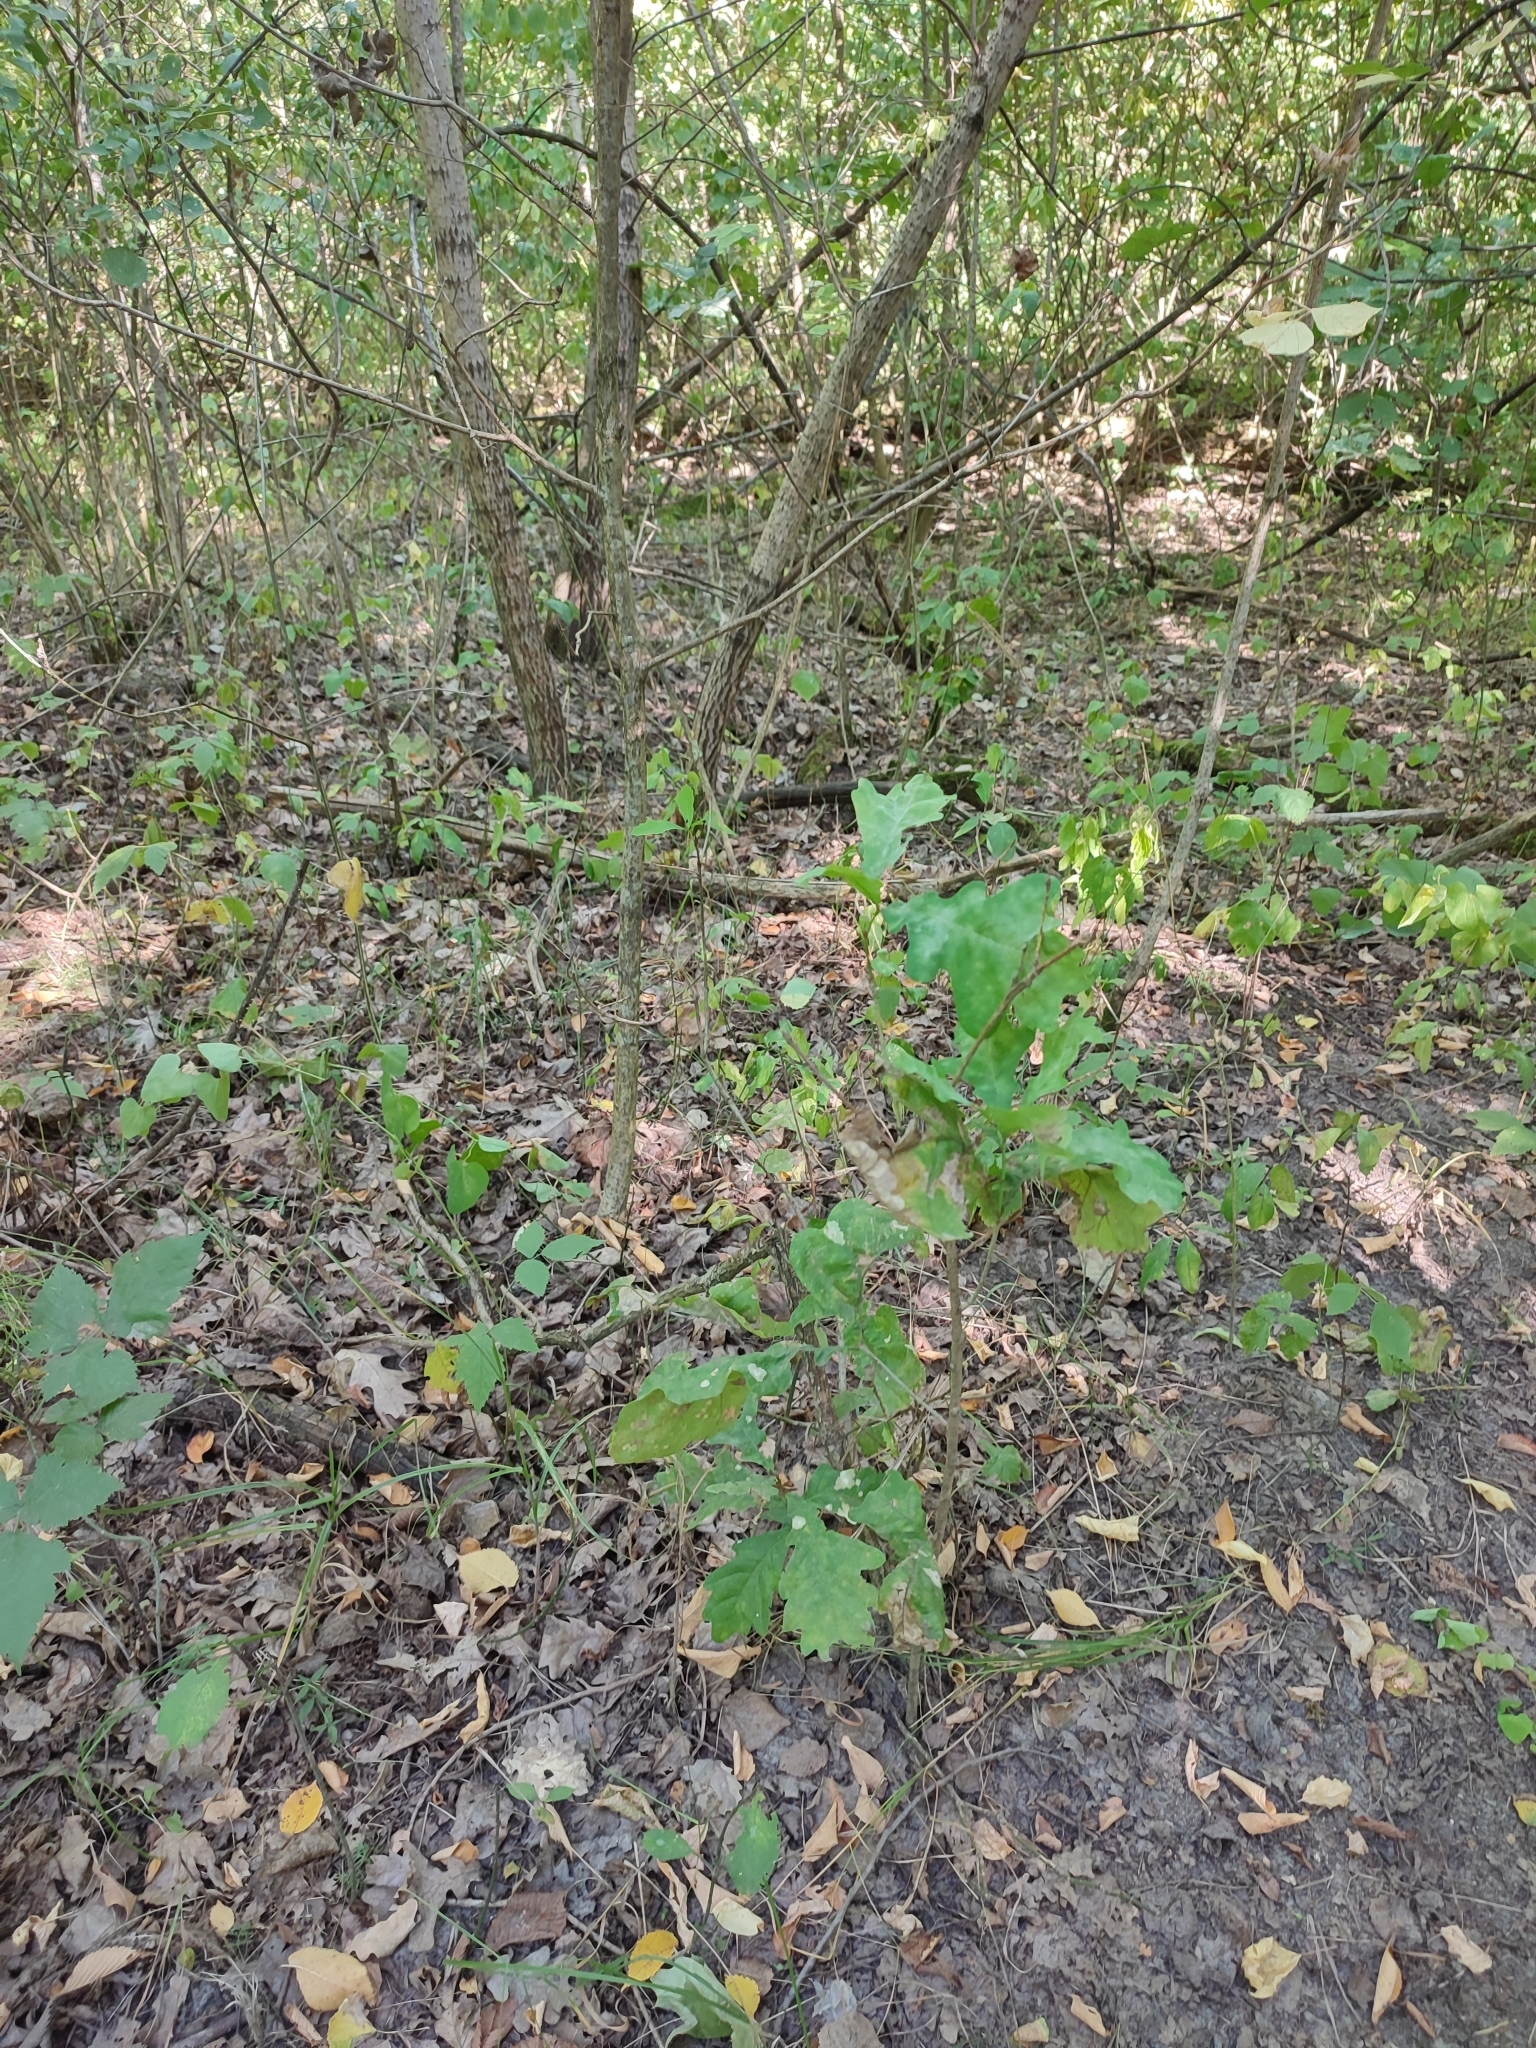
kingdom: Plantae
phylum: Tracheophyta
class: Magnoliopsida
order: Fagales
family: Fagaceae
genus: Quercus
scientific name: Quercus robur
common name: Pedunculate oak
